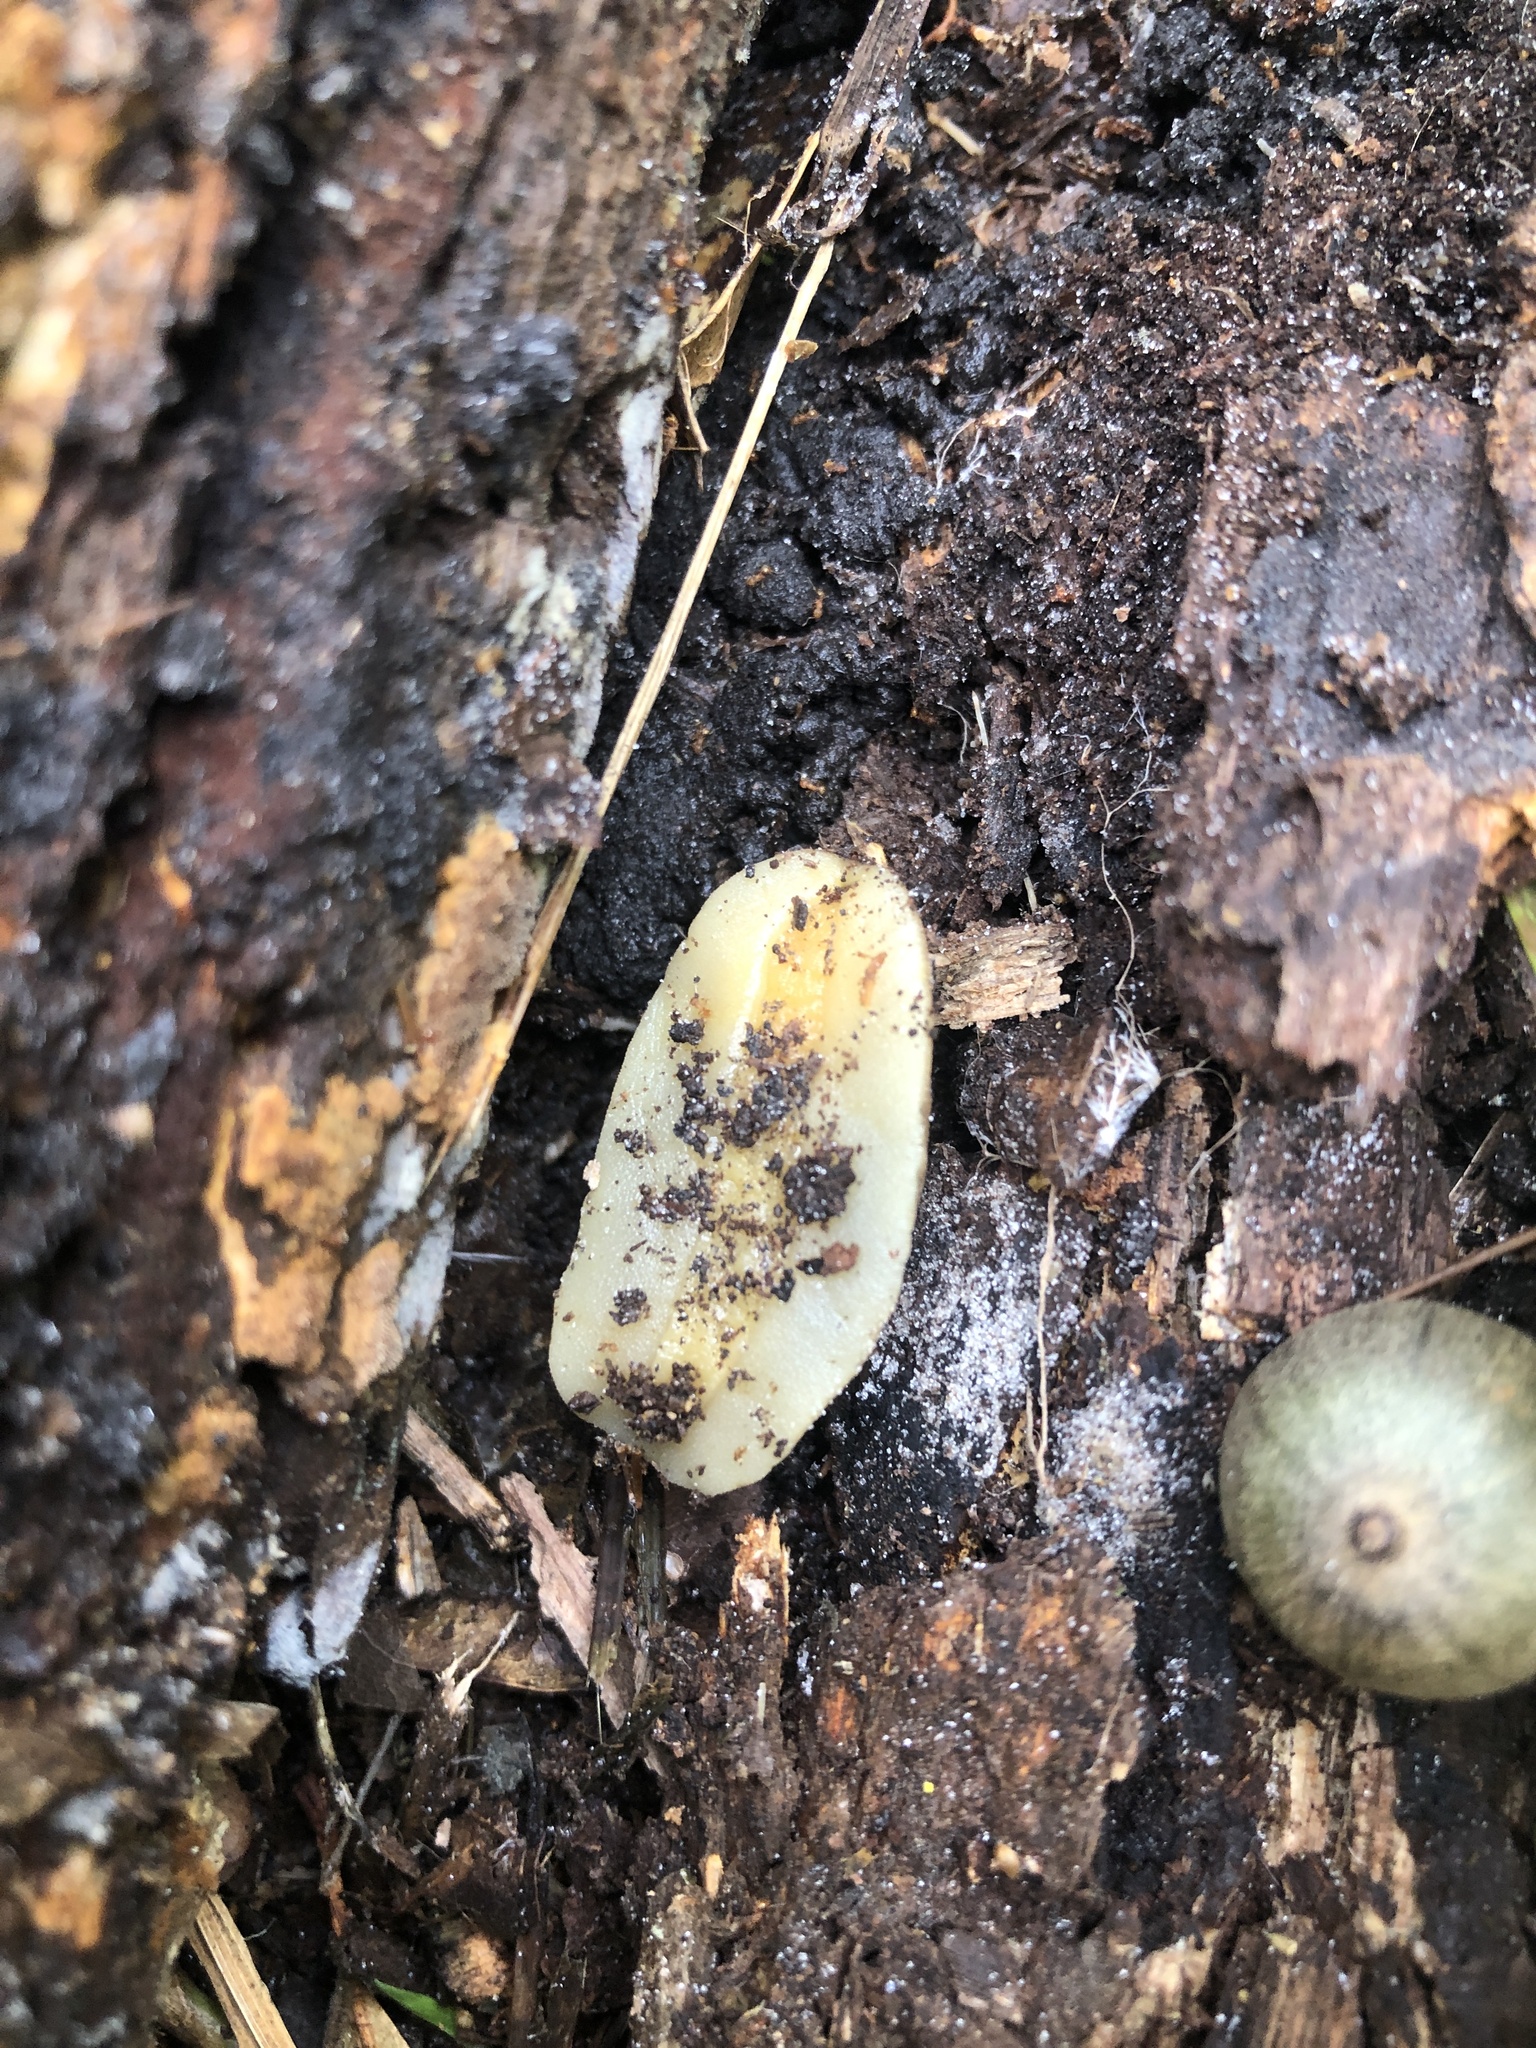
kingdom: Animalia
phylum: Mollusca
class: Gastropoda
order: Systellommatophora
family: Veronicellidae
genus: Leidyula
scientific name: Leidyula floridana
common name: Florida leatherleaf
